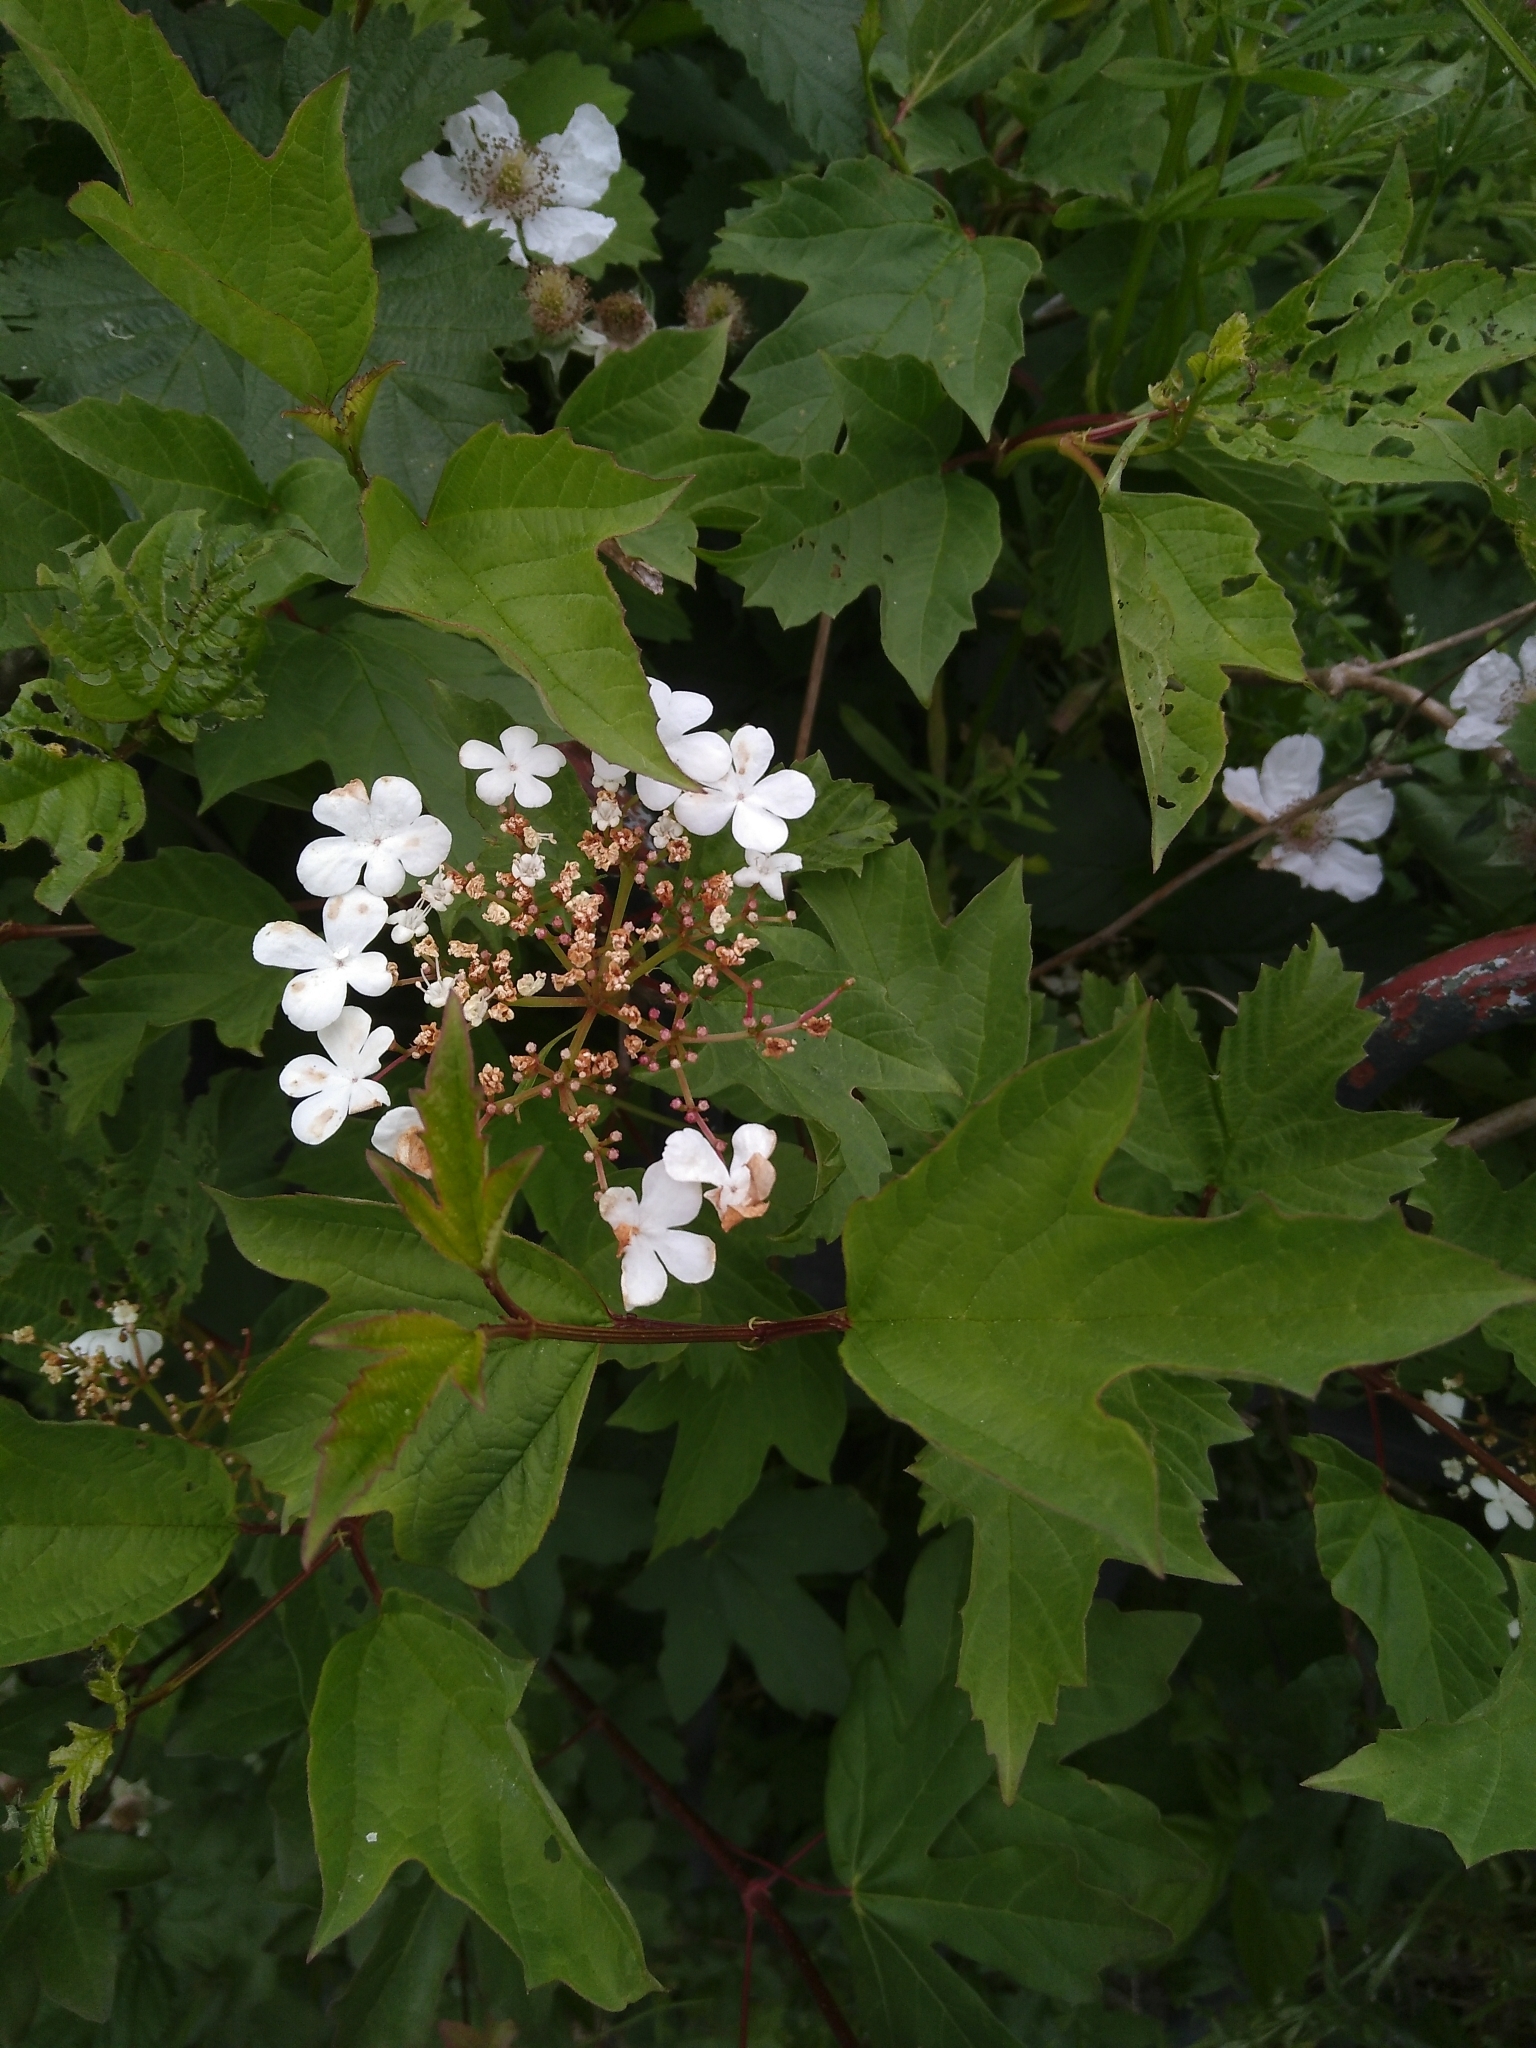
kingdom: Plantae
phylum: Tracheophyta
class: Magnoliopsida
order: Dipsacales
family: Viburnaceae
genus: Viburnum
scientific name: Viburnum opulus
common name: Guelder-rose
